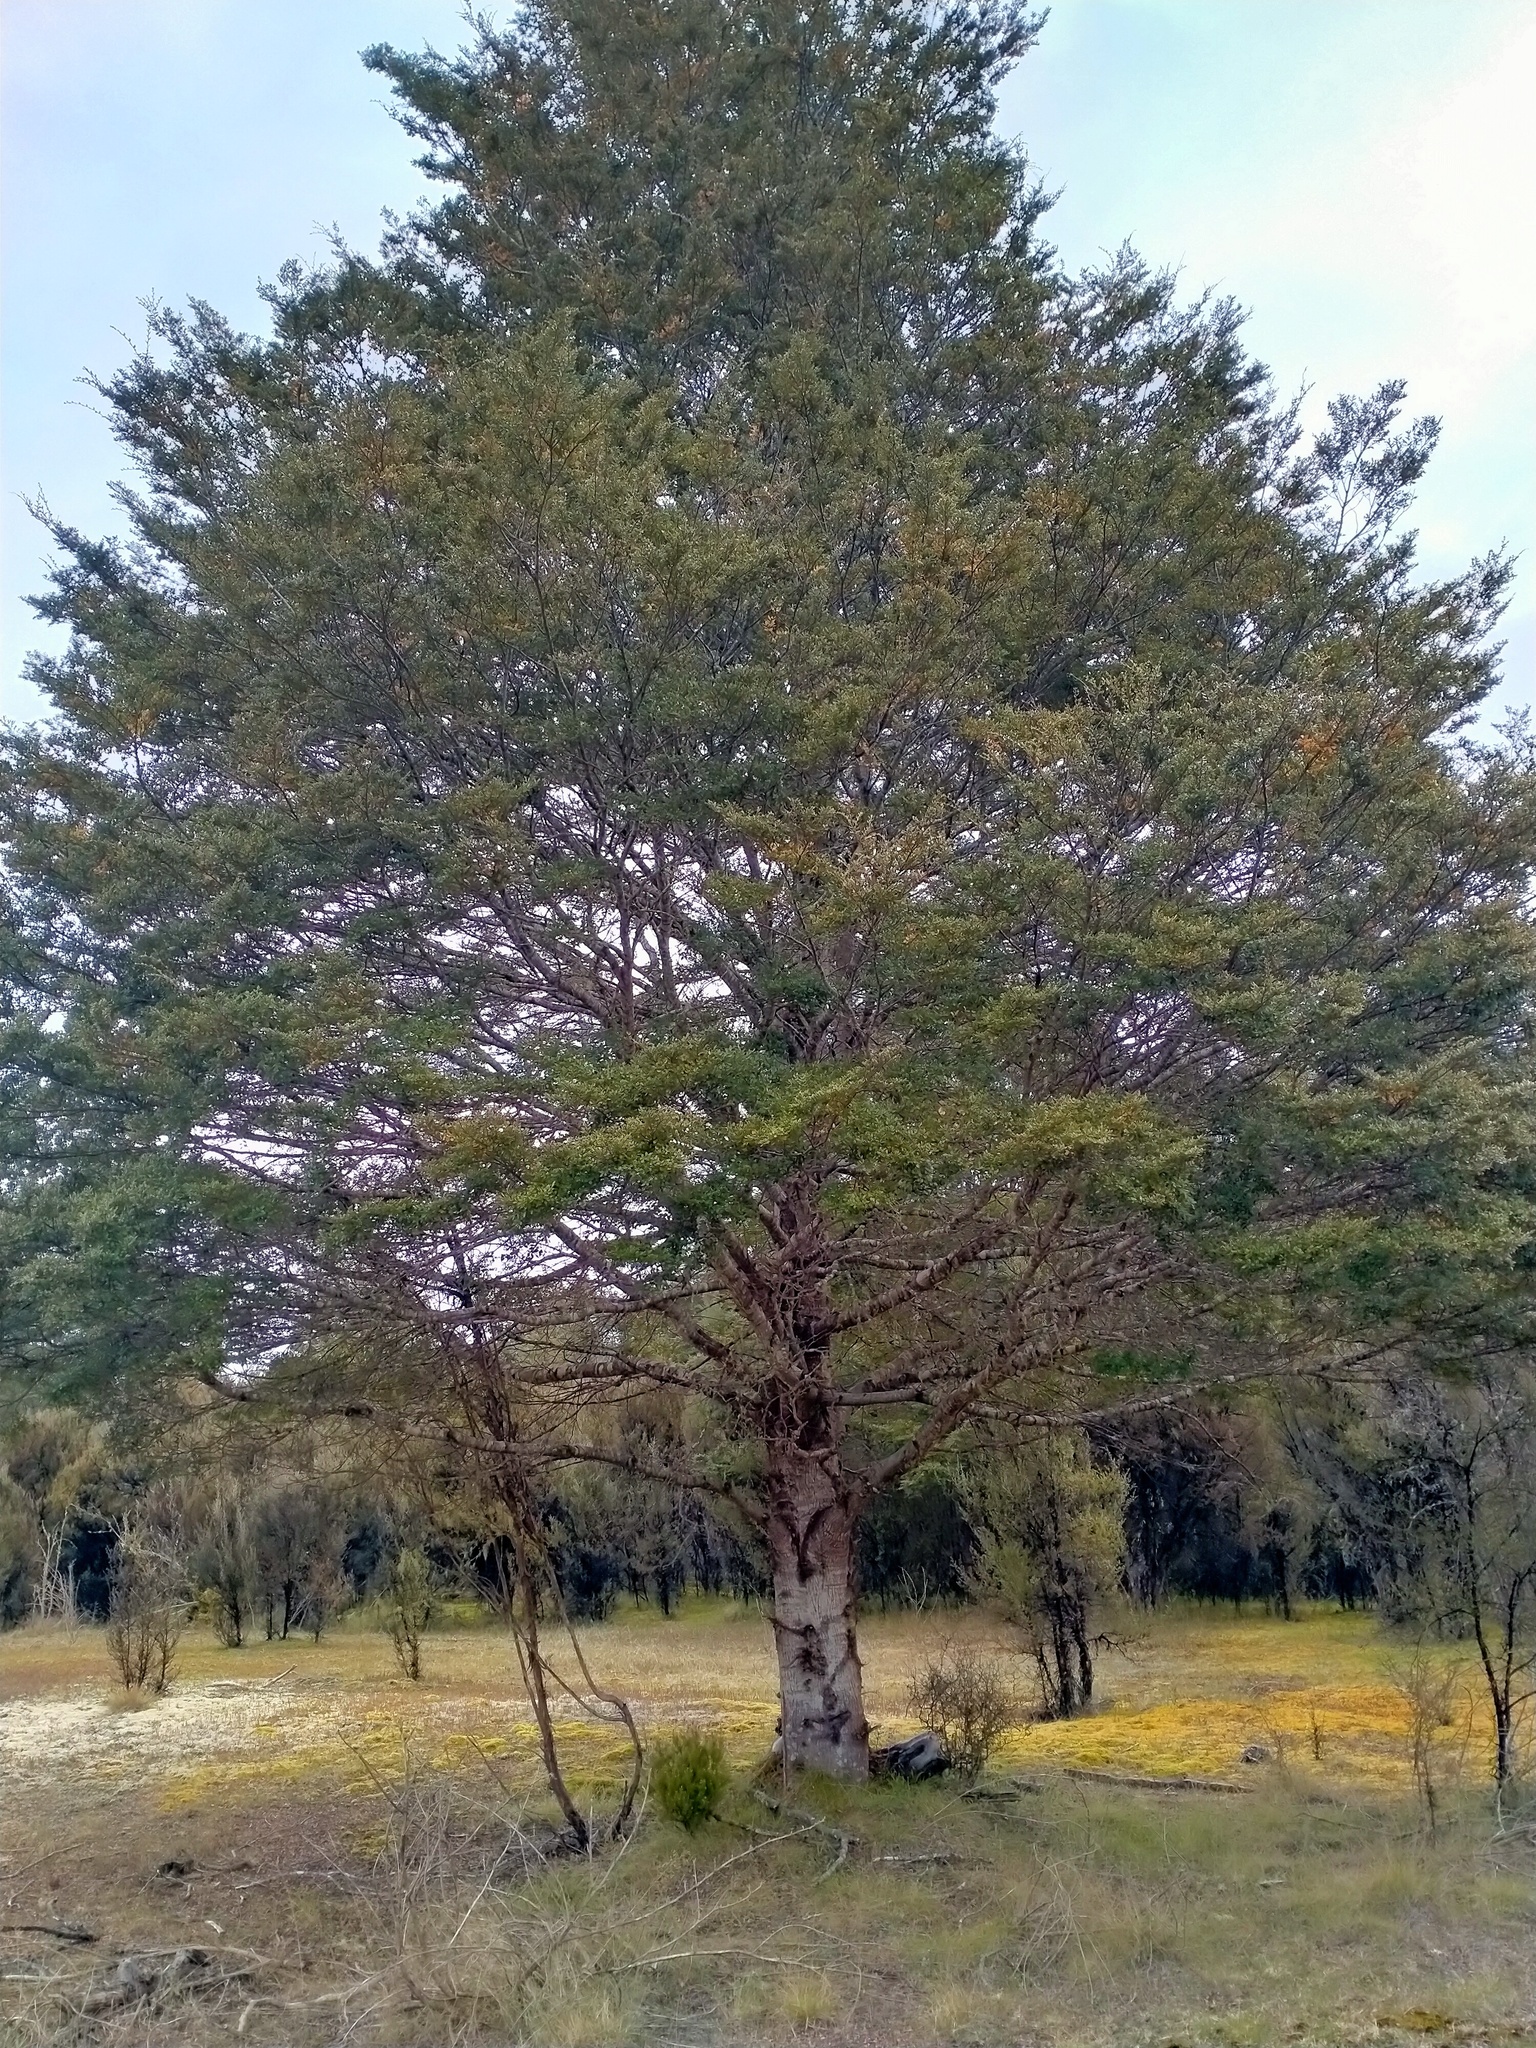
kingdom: Plantae
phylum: Tracheophyta
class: Magnoliopsida
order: Fagales
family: Nothofagaceae
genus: Nothofagus
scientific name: Nothofagus cliffortioides
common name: Mountain beech
